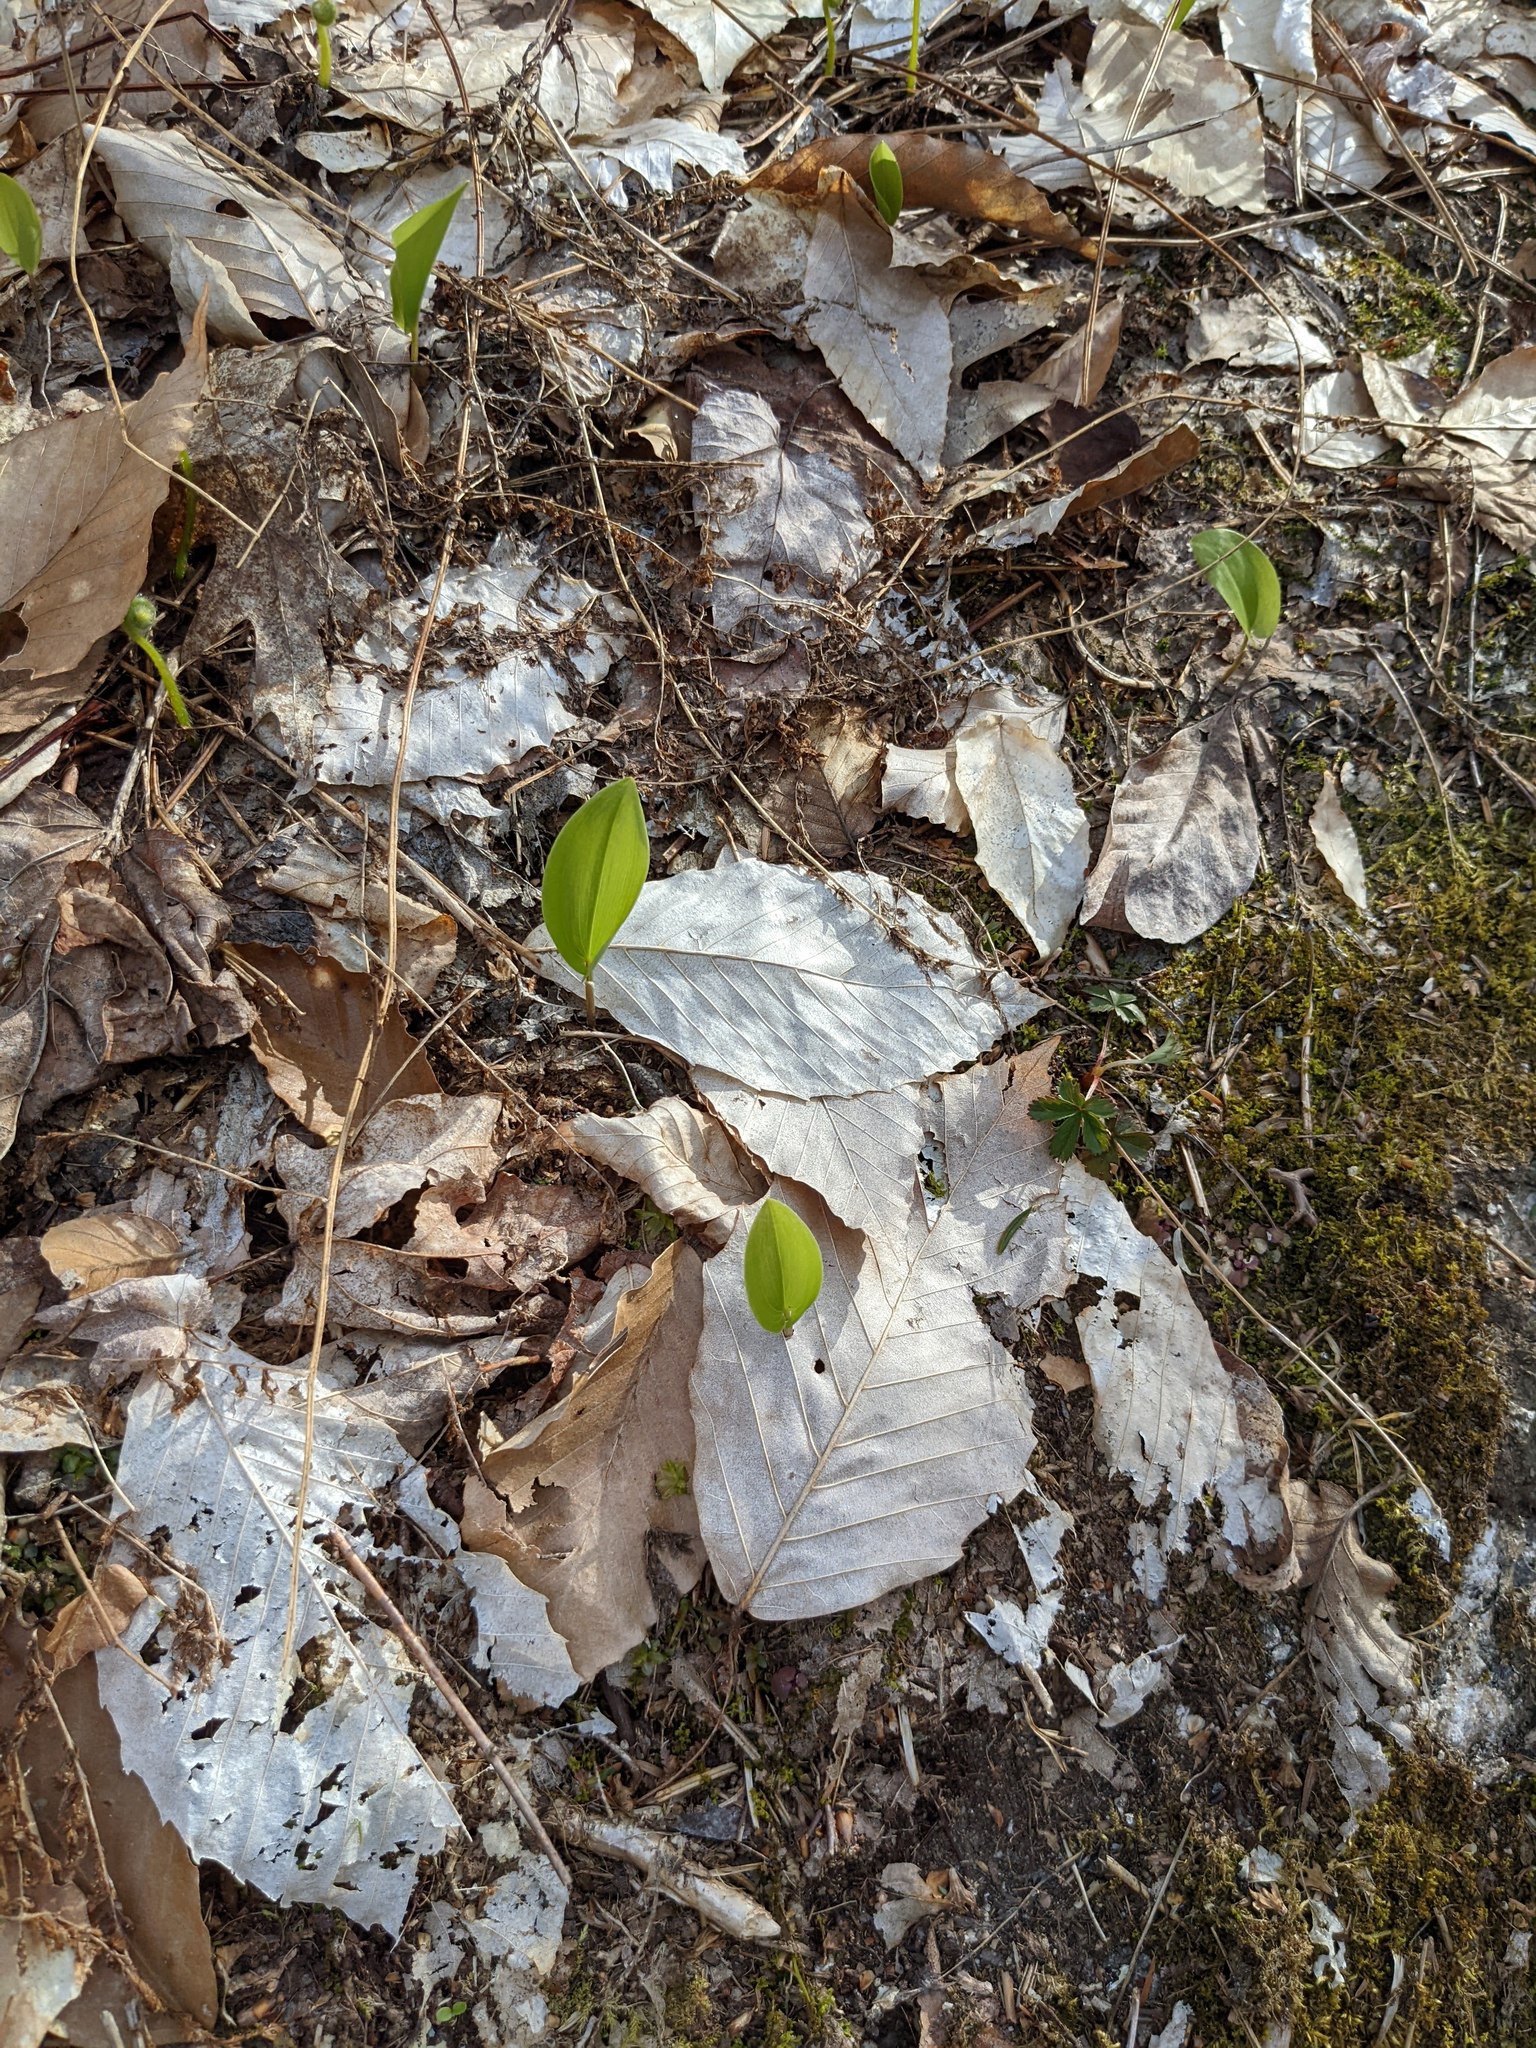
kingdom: Plantae
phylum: Tracheophyta
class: Liliopsida
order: Asparagales
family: Asparagaceae
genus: Maianthemum
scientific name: Maianthemum canadense
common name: False lily-of-the-valley
